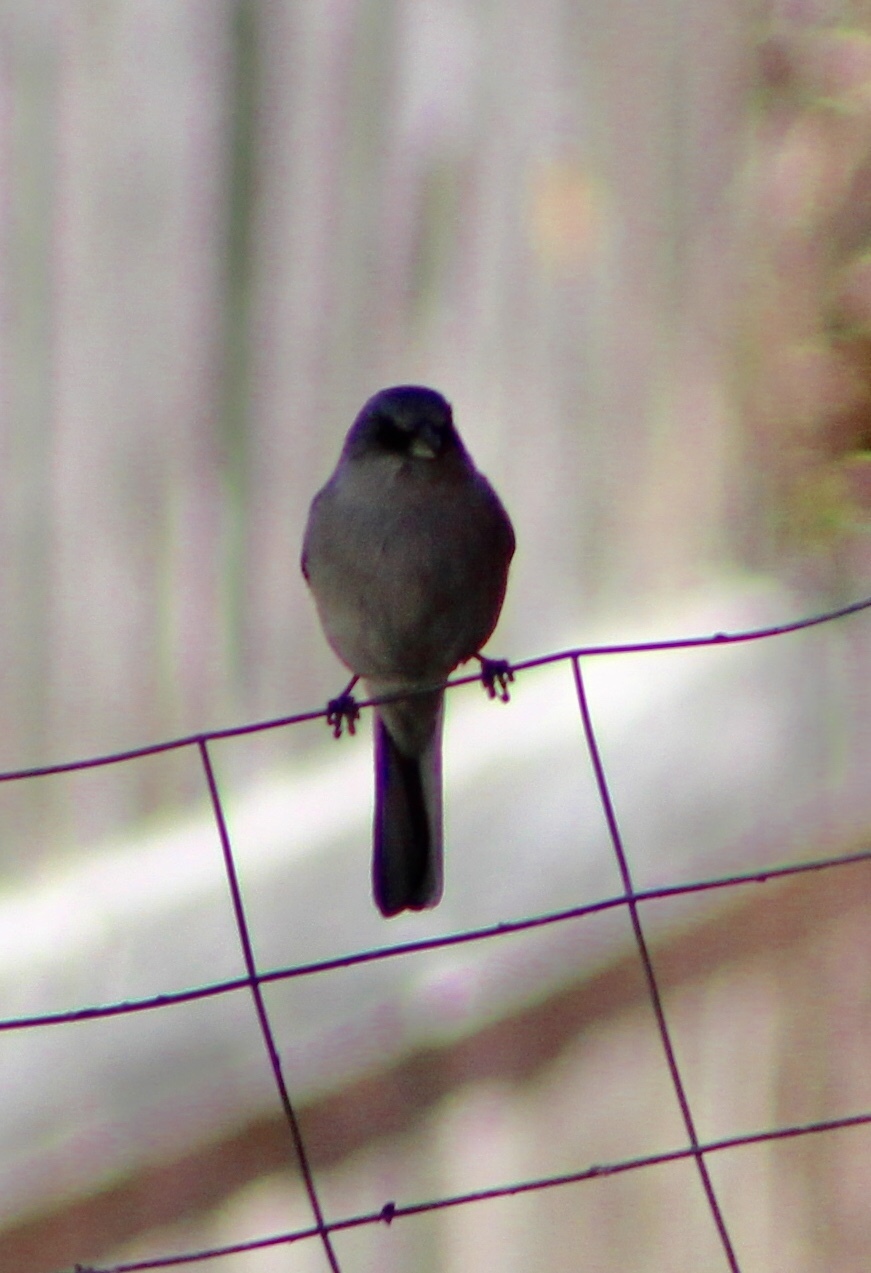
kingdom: Animalia
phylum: Chordata
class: Aves
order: Passeriformes
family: Passerellidae
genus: Junco
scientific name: Junco hyemalis
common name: Dark-eyed junco
